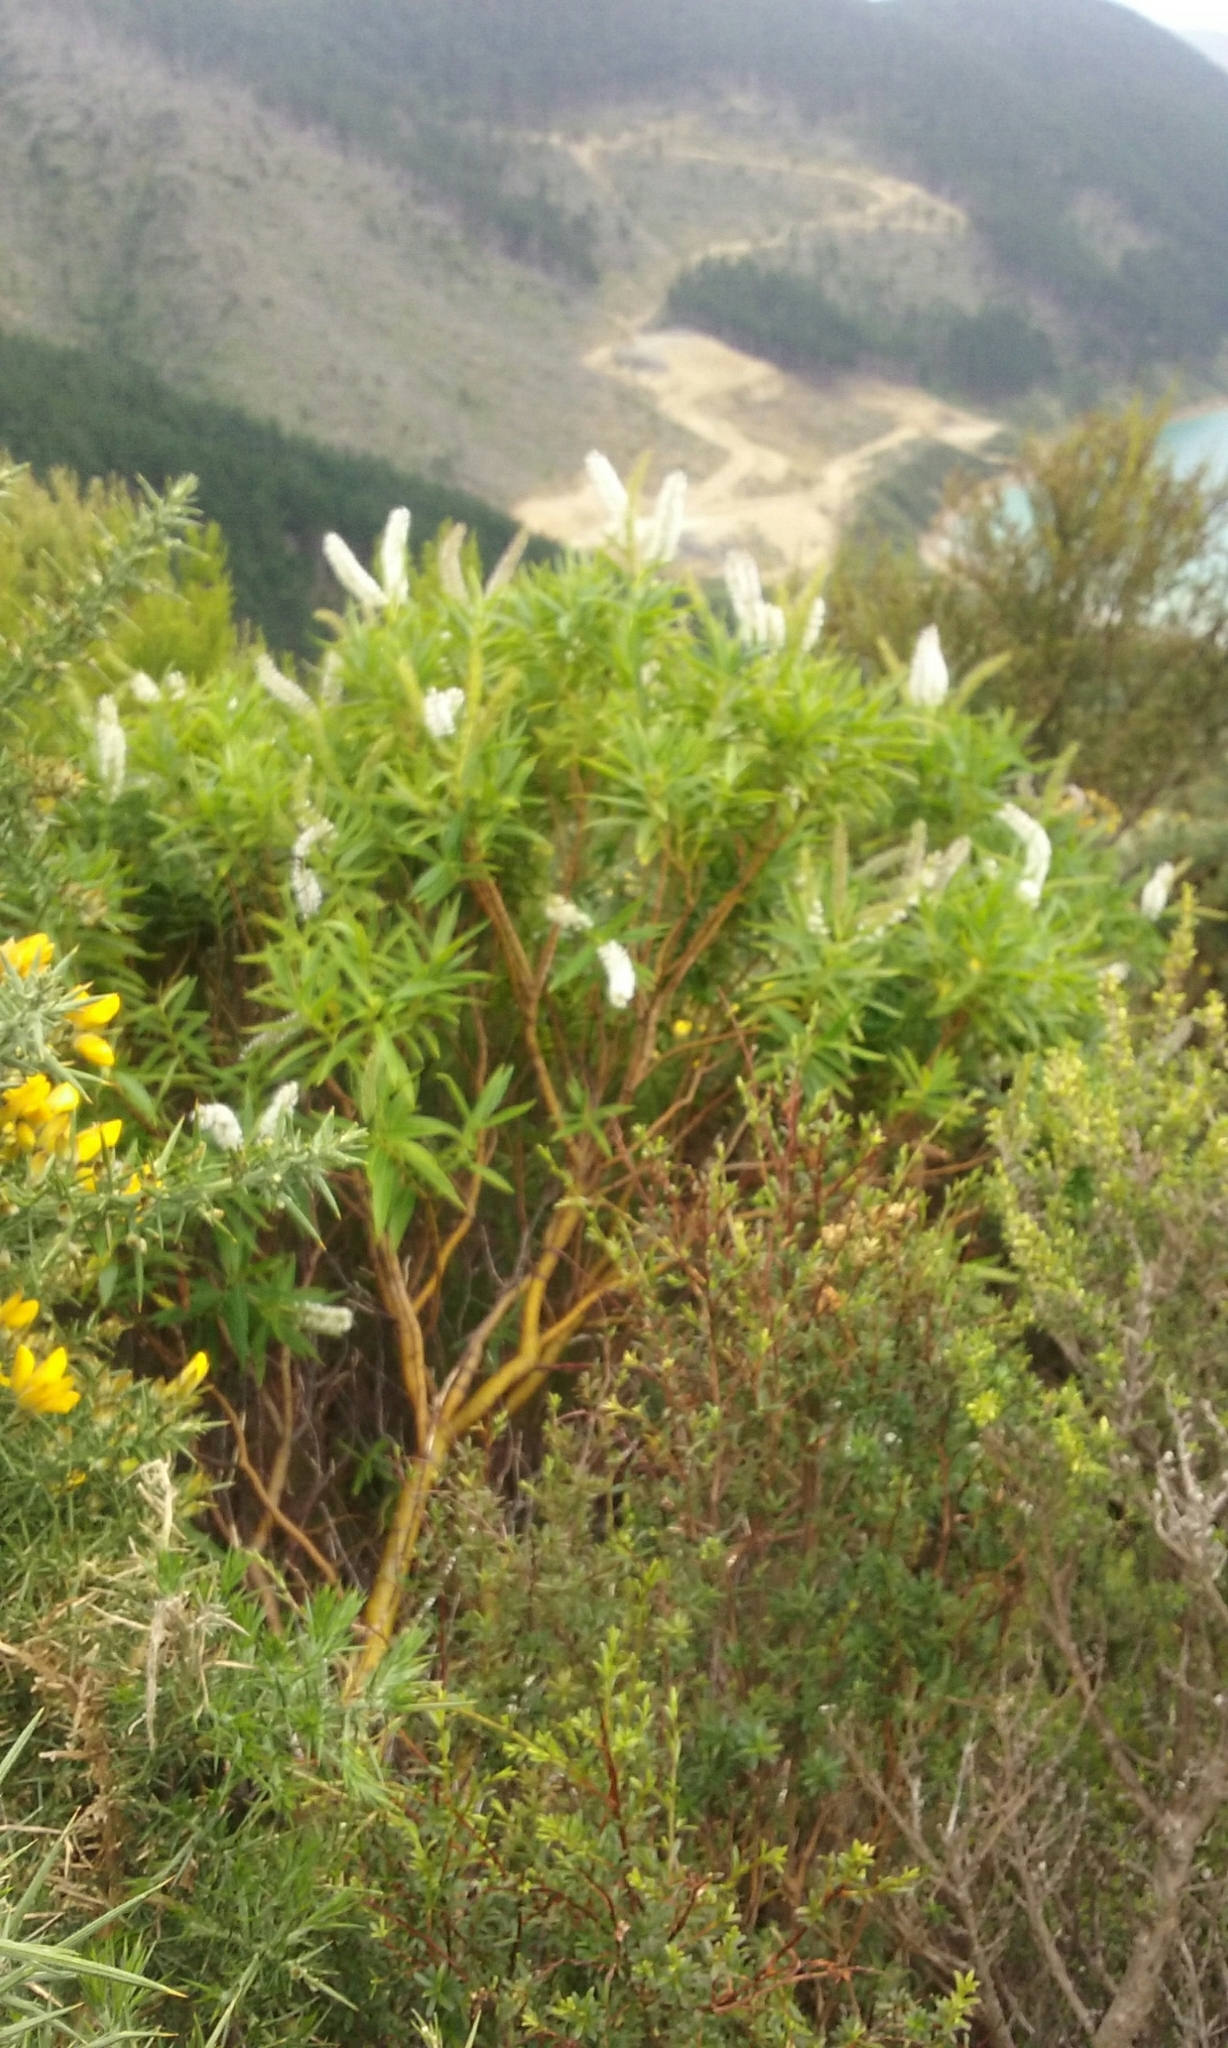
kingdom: Plantae
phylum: Tracheophyta
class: Magnoliopsida
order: Lamiales
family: Plantaginaceae
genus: Veronica
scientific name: Veronica stricta
